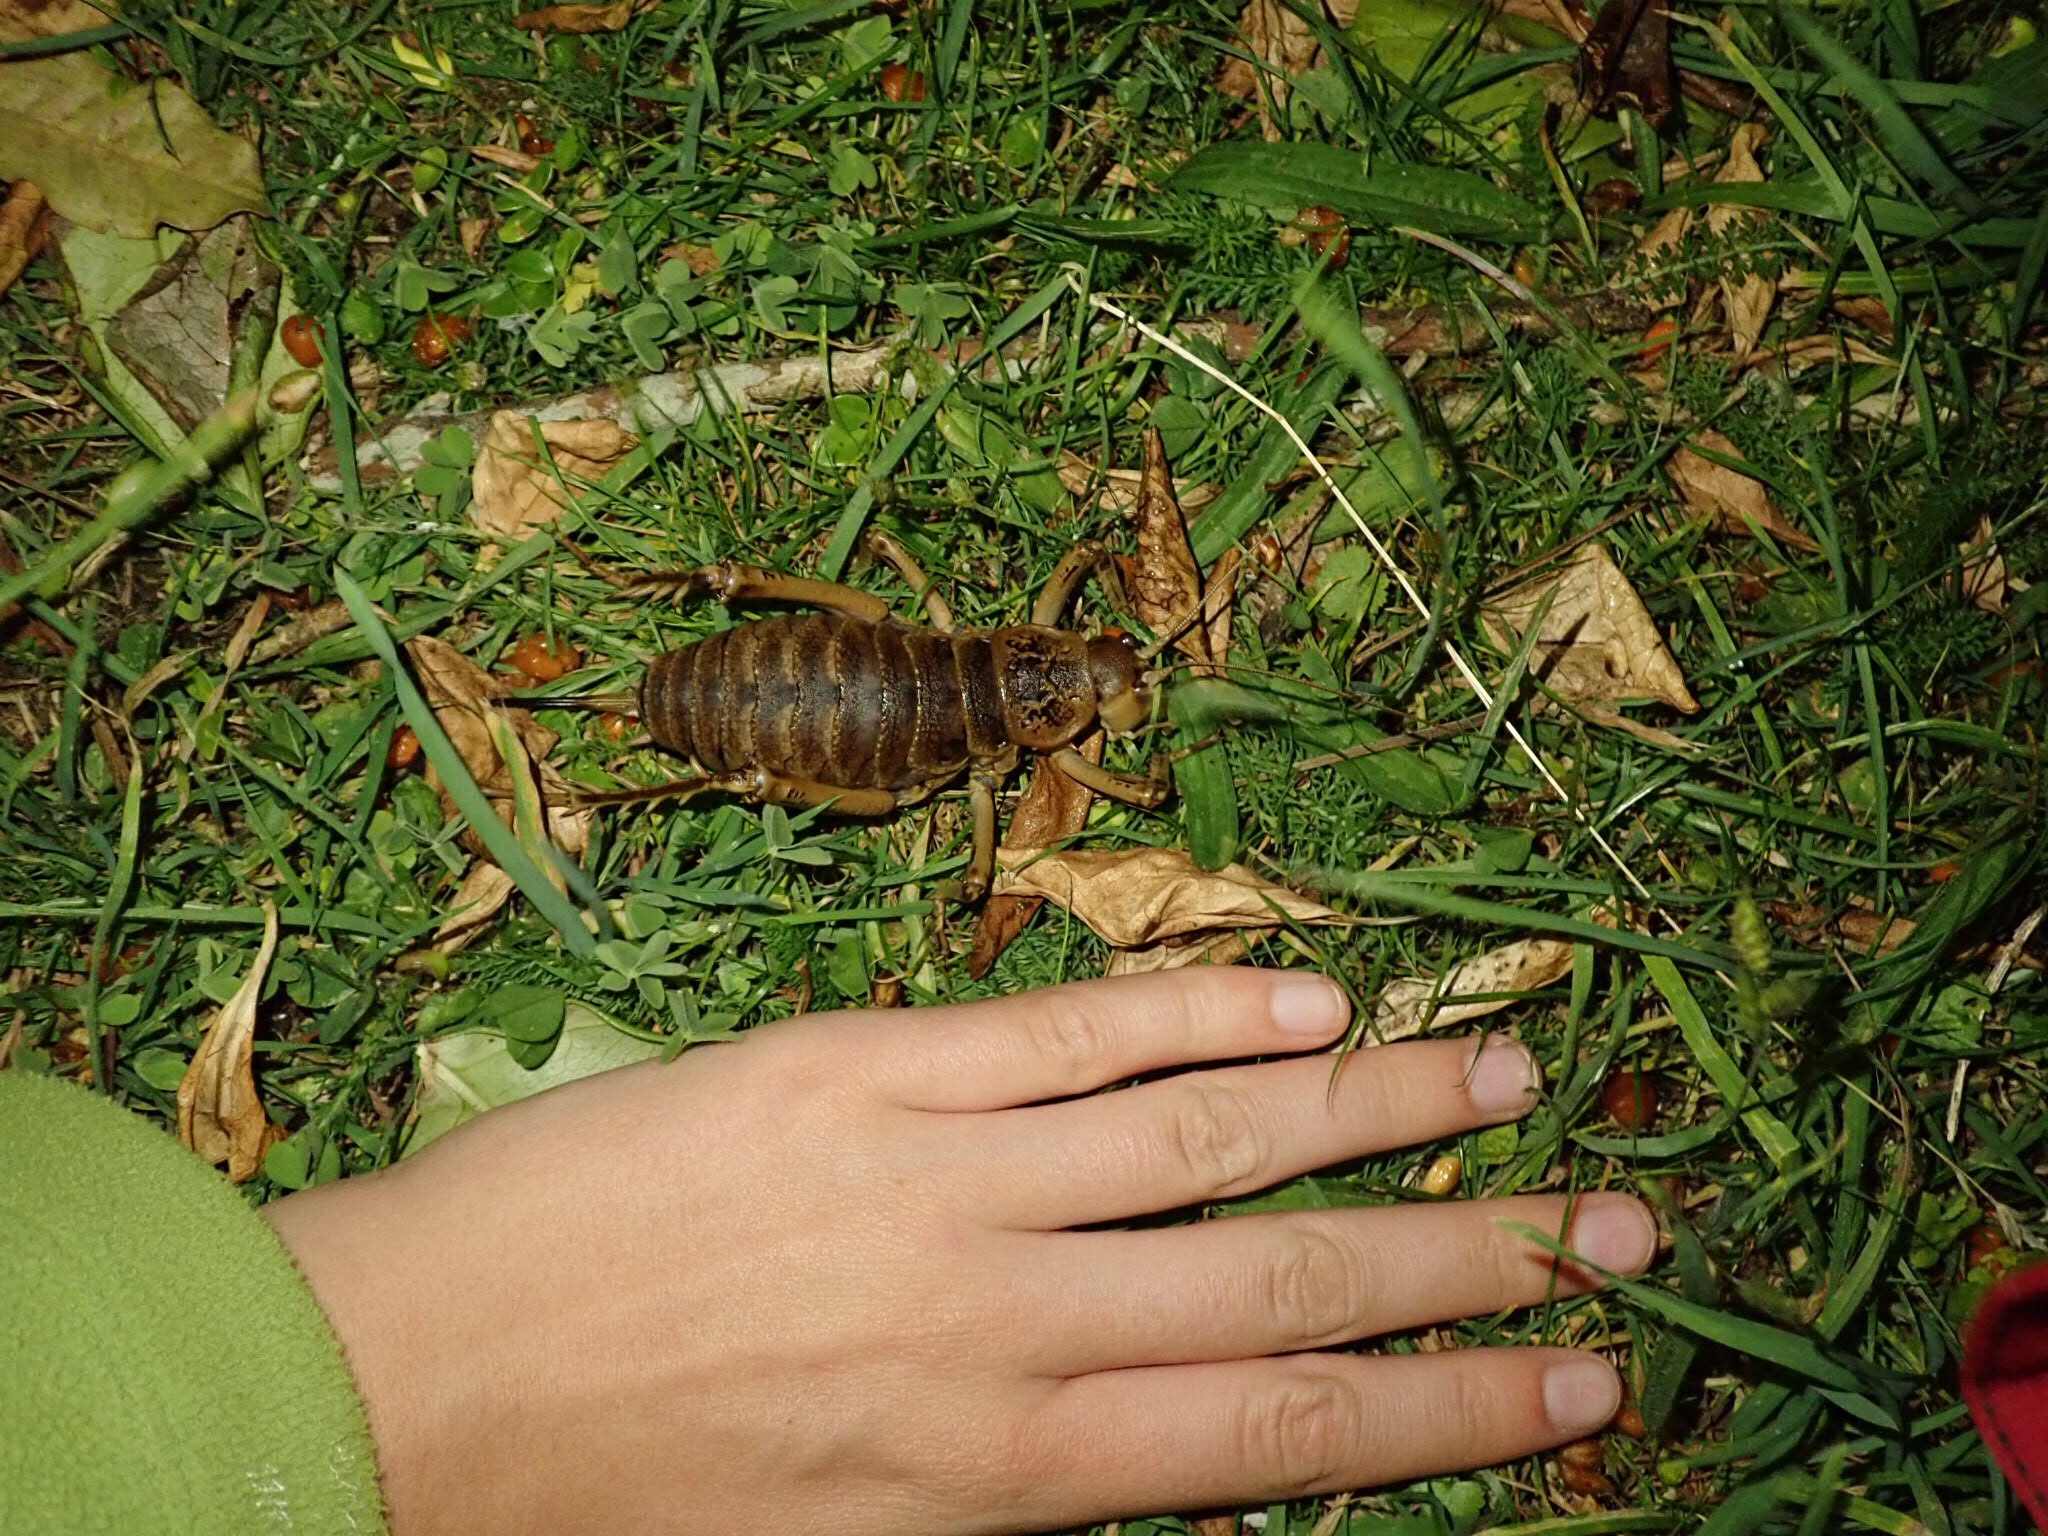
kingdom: Animalia
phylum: Arthropoda
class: Insecta
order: Orthoptera
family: Anostostomatidae
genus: Deinacrida
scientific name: Deinacrida rugosa
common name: Stephens island weta
